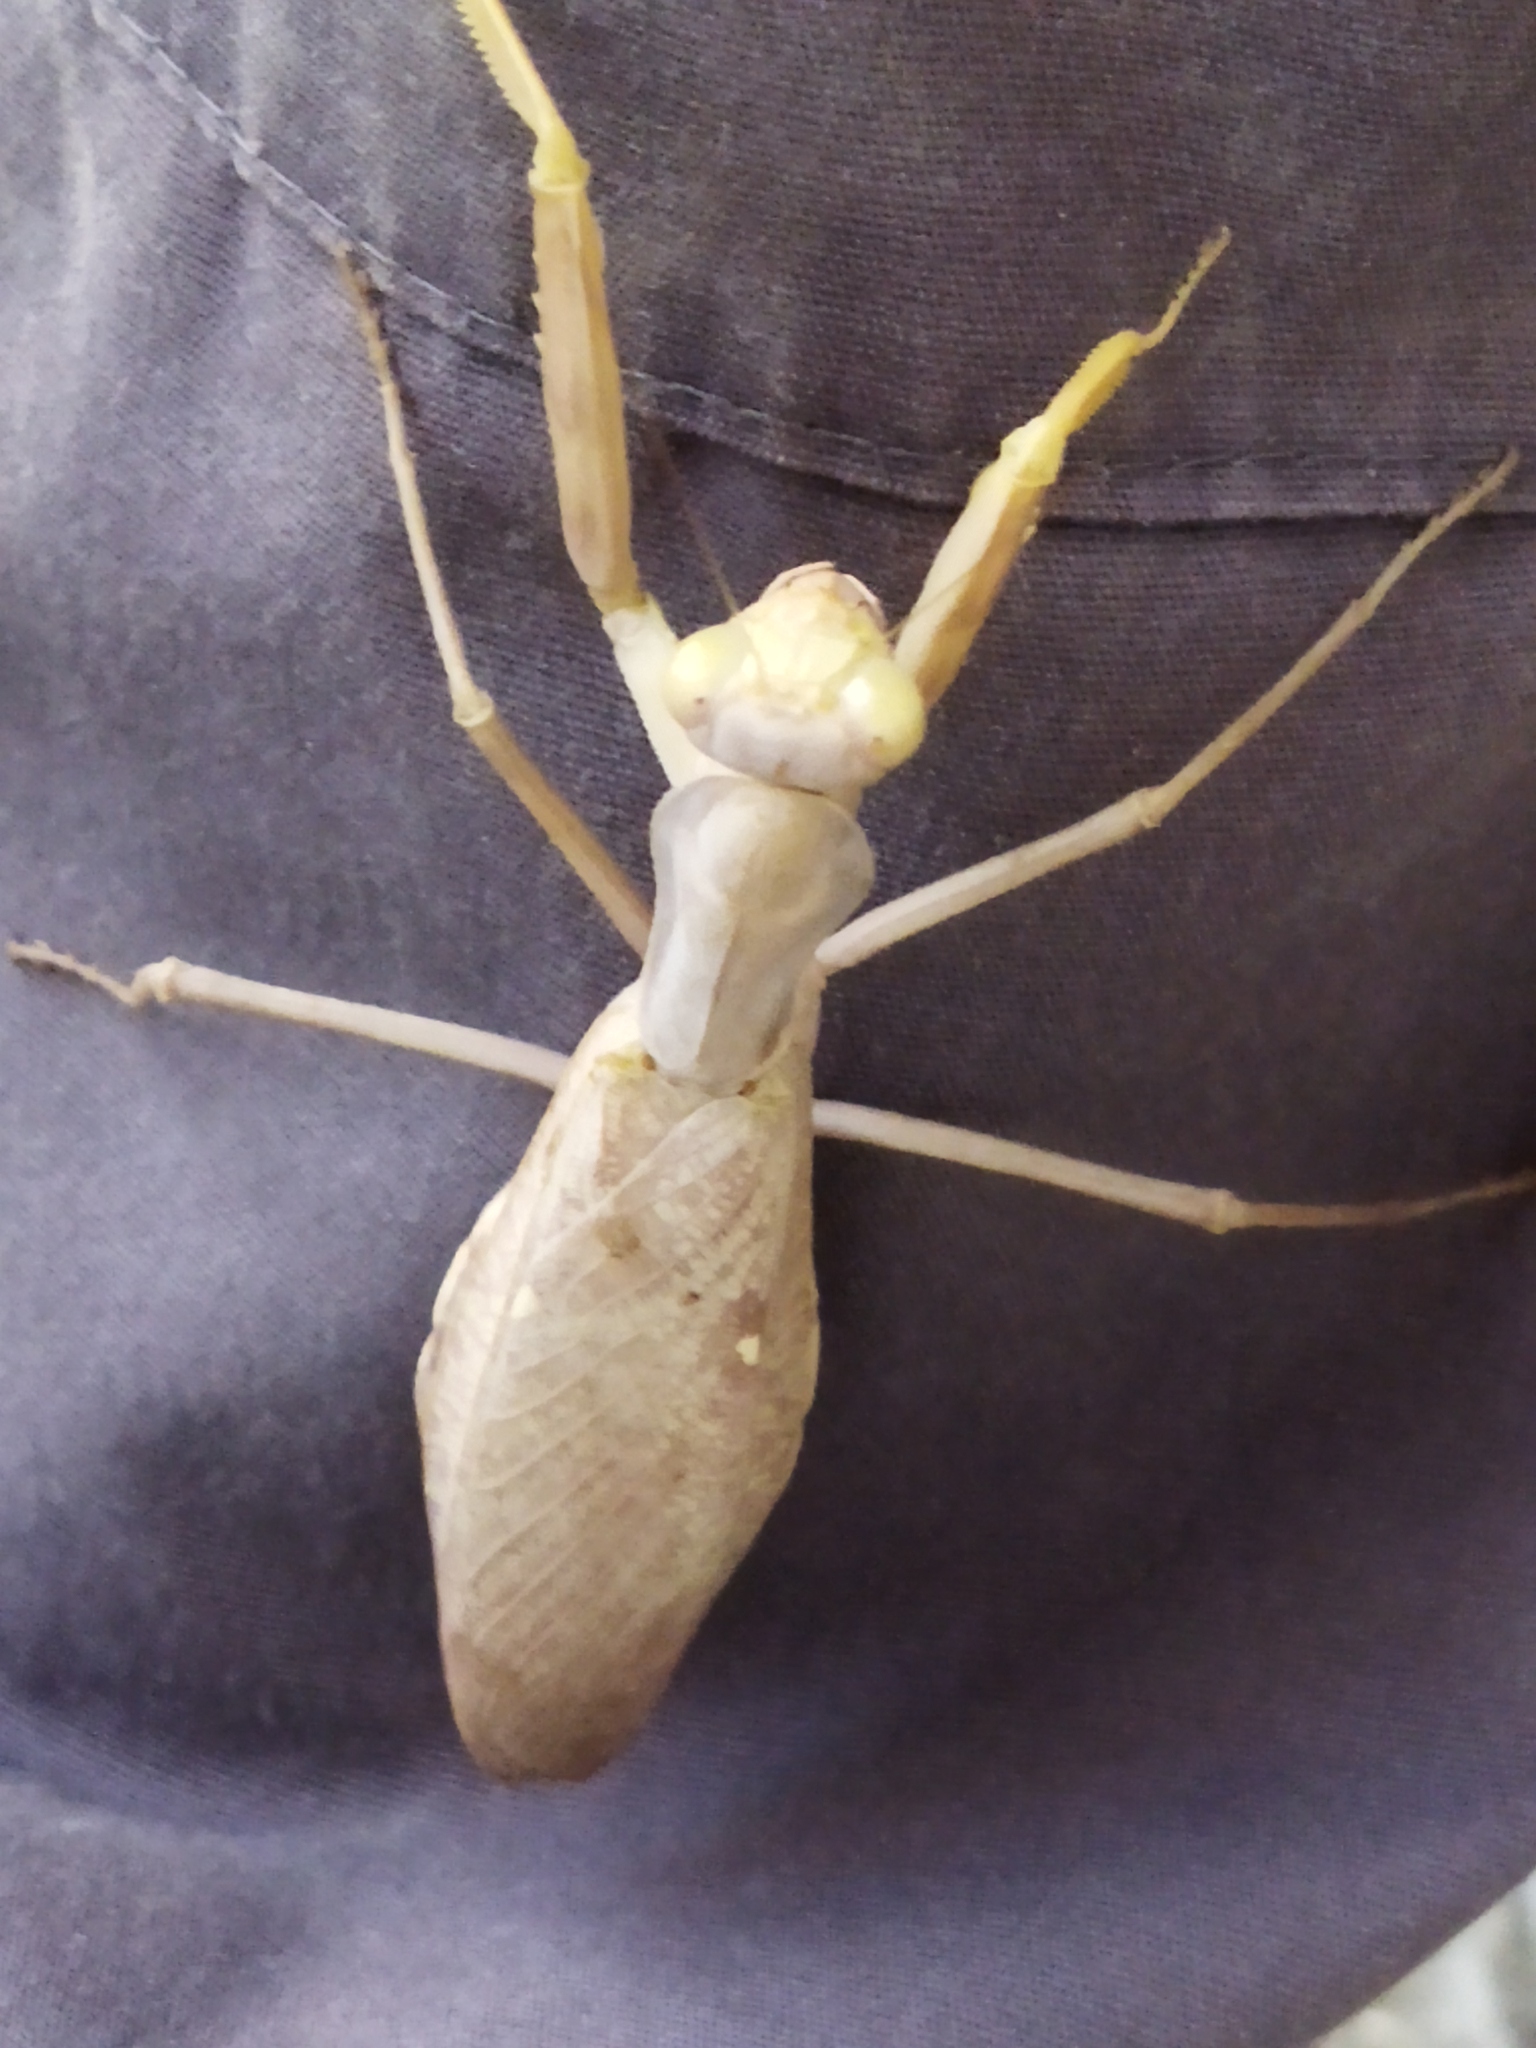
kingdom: Animalia
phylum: Arthropoda
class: Insecta
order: Mantodea
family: Mantidae
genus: Hierodula
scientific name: Hierodula transcaucasica
